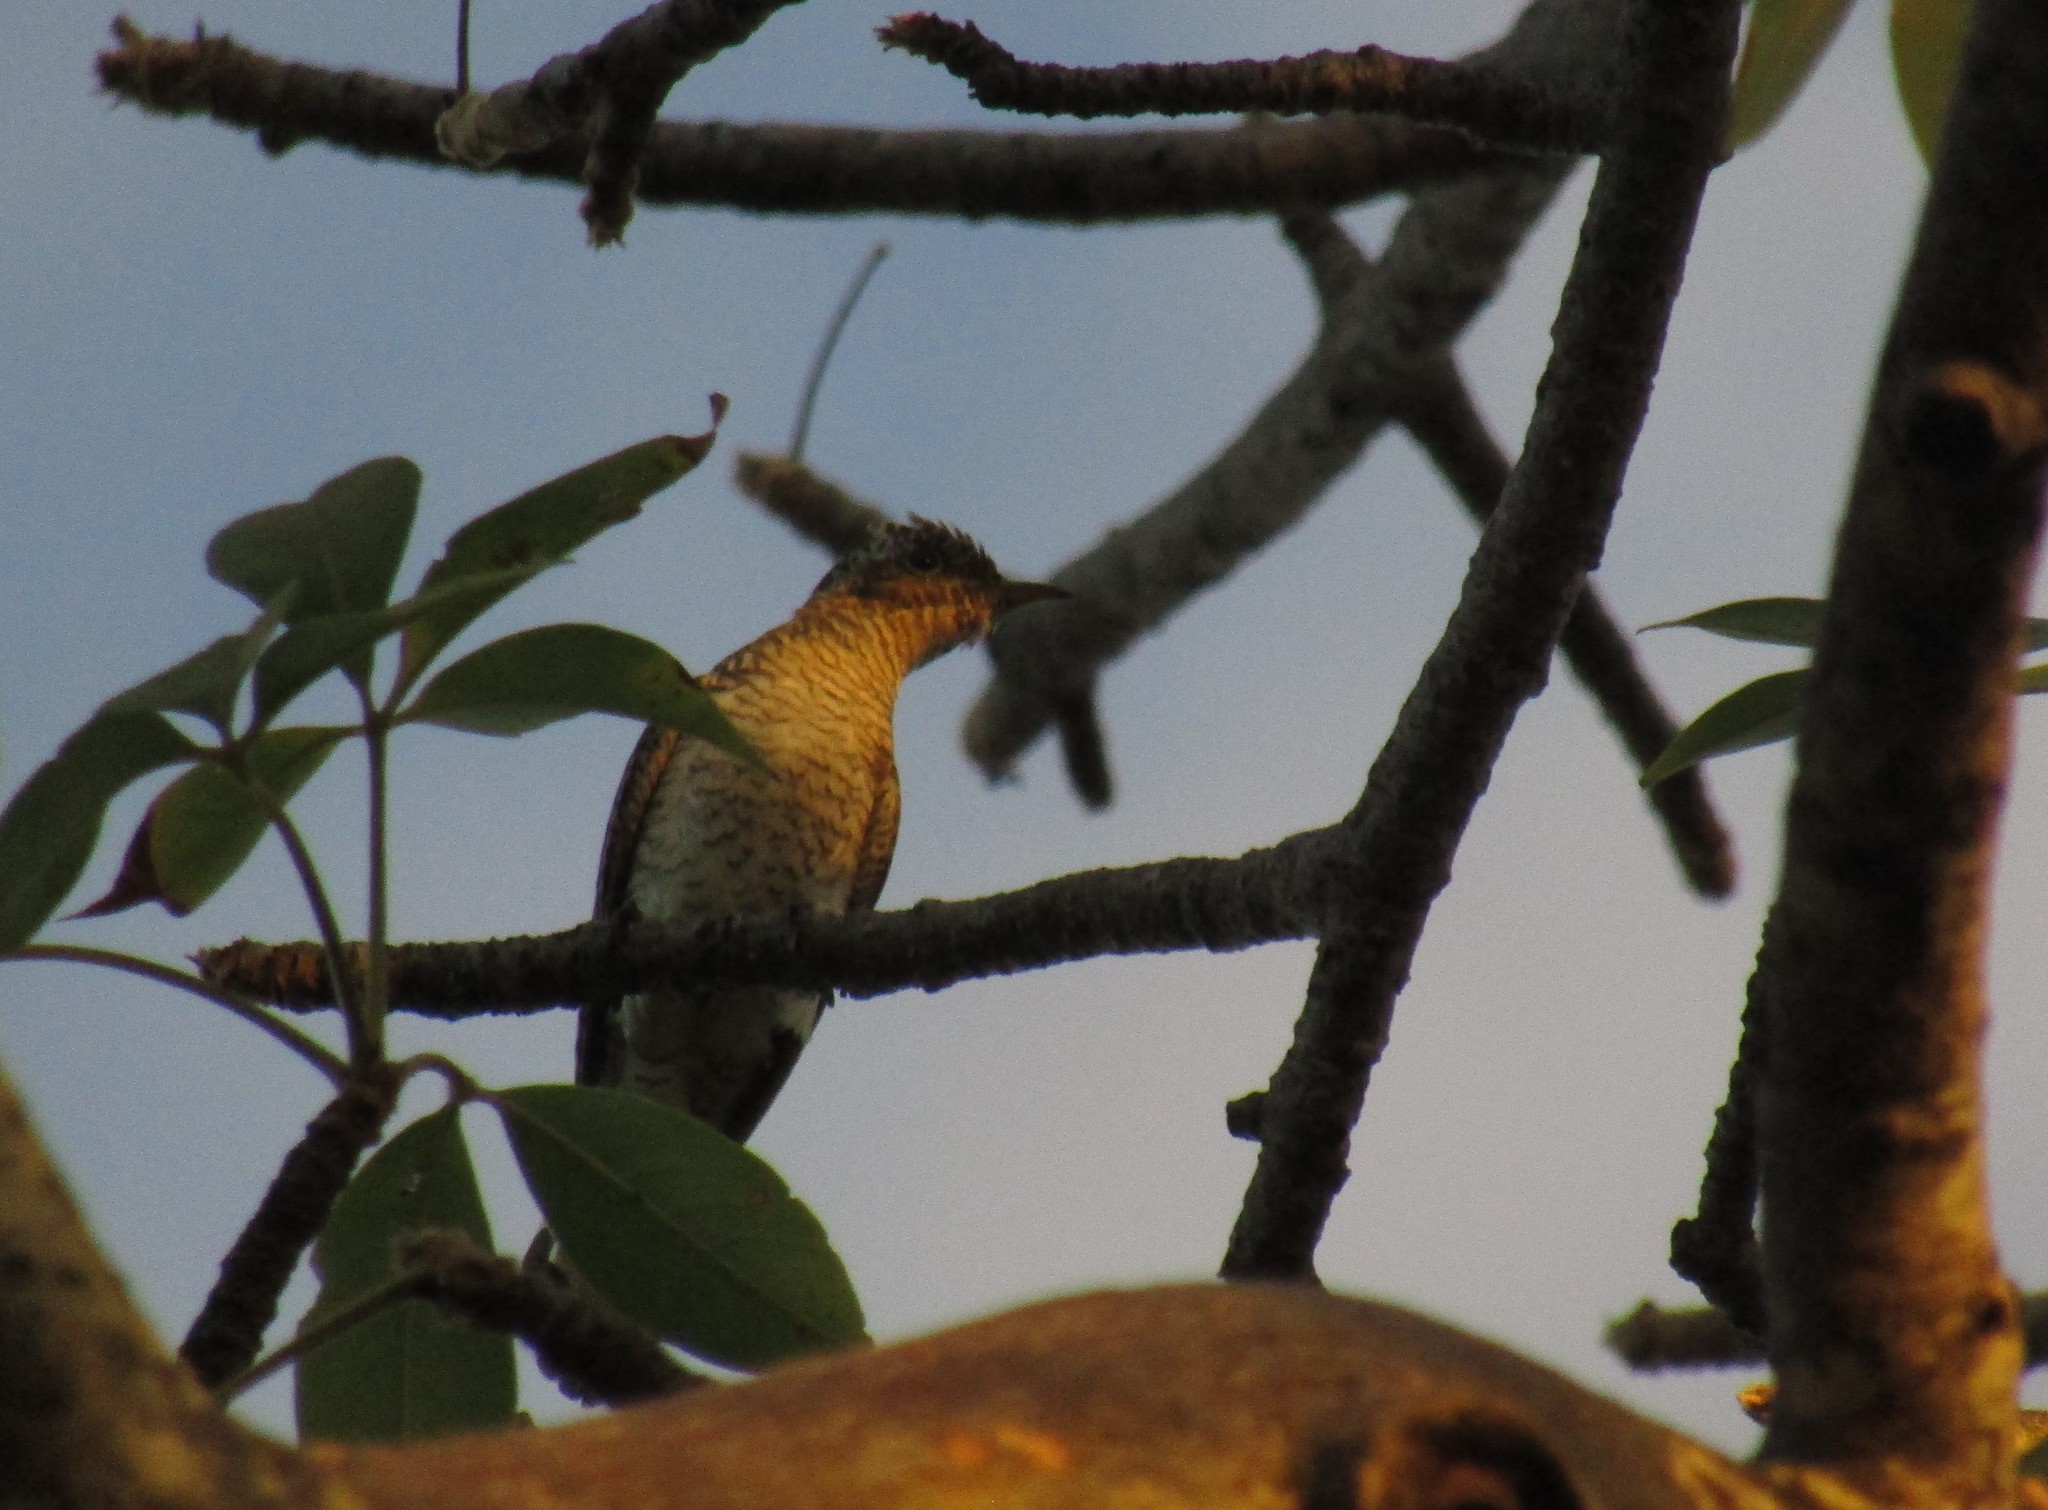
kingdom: Animalia
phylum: Chordata
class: Aves
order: Cuculiformes
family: Cuculidae
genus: Chrysococcyx
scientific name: Chrysococcyx klaas
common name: Klaas's cuckoo
